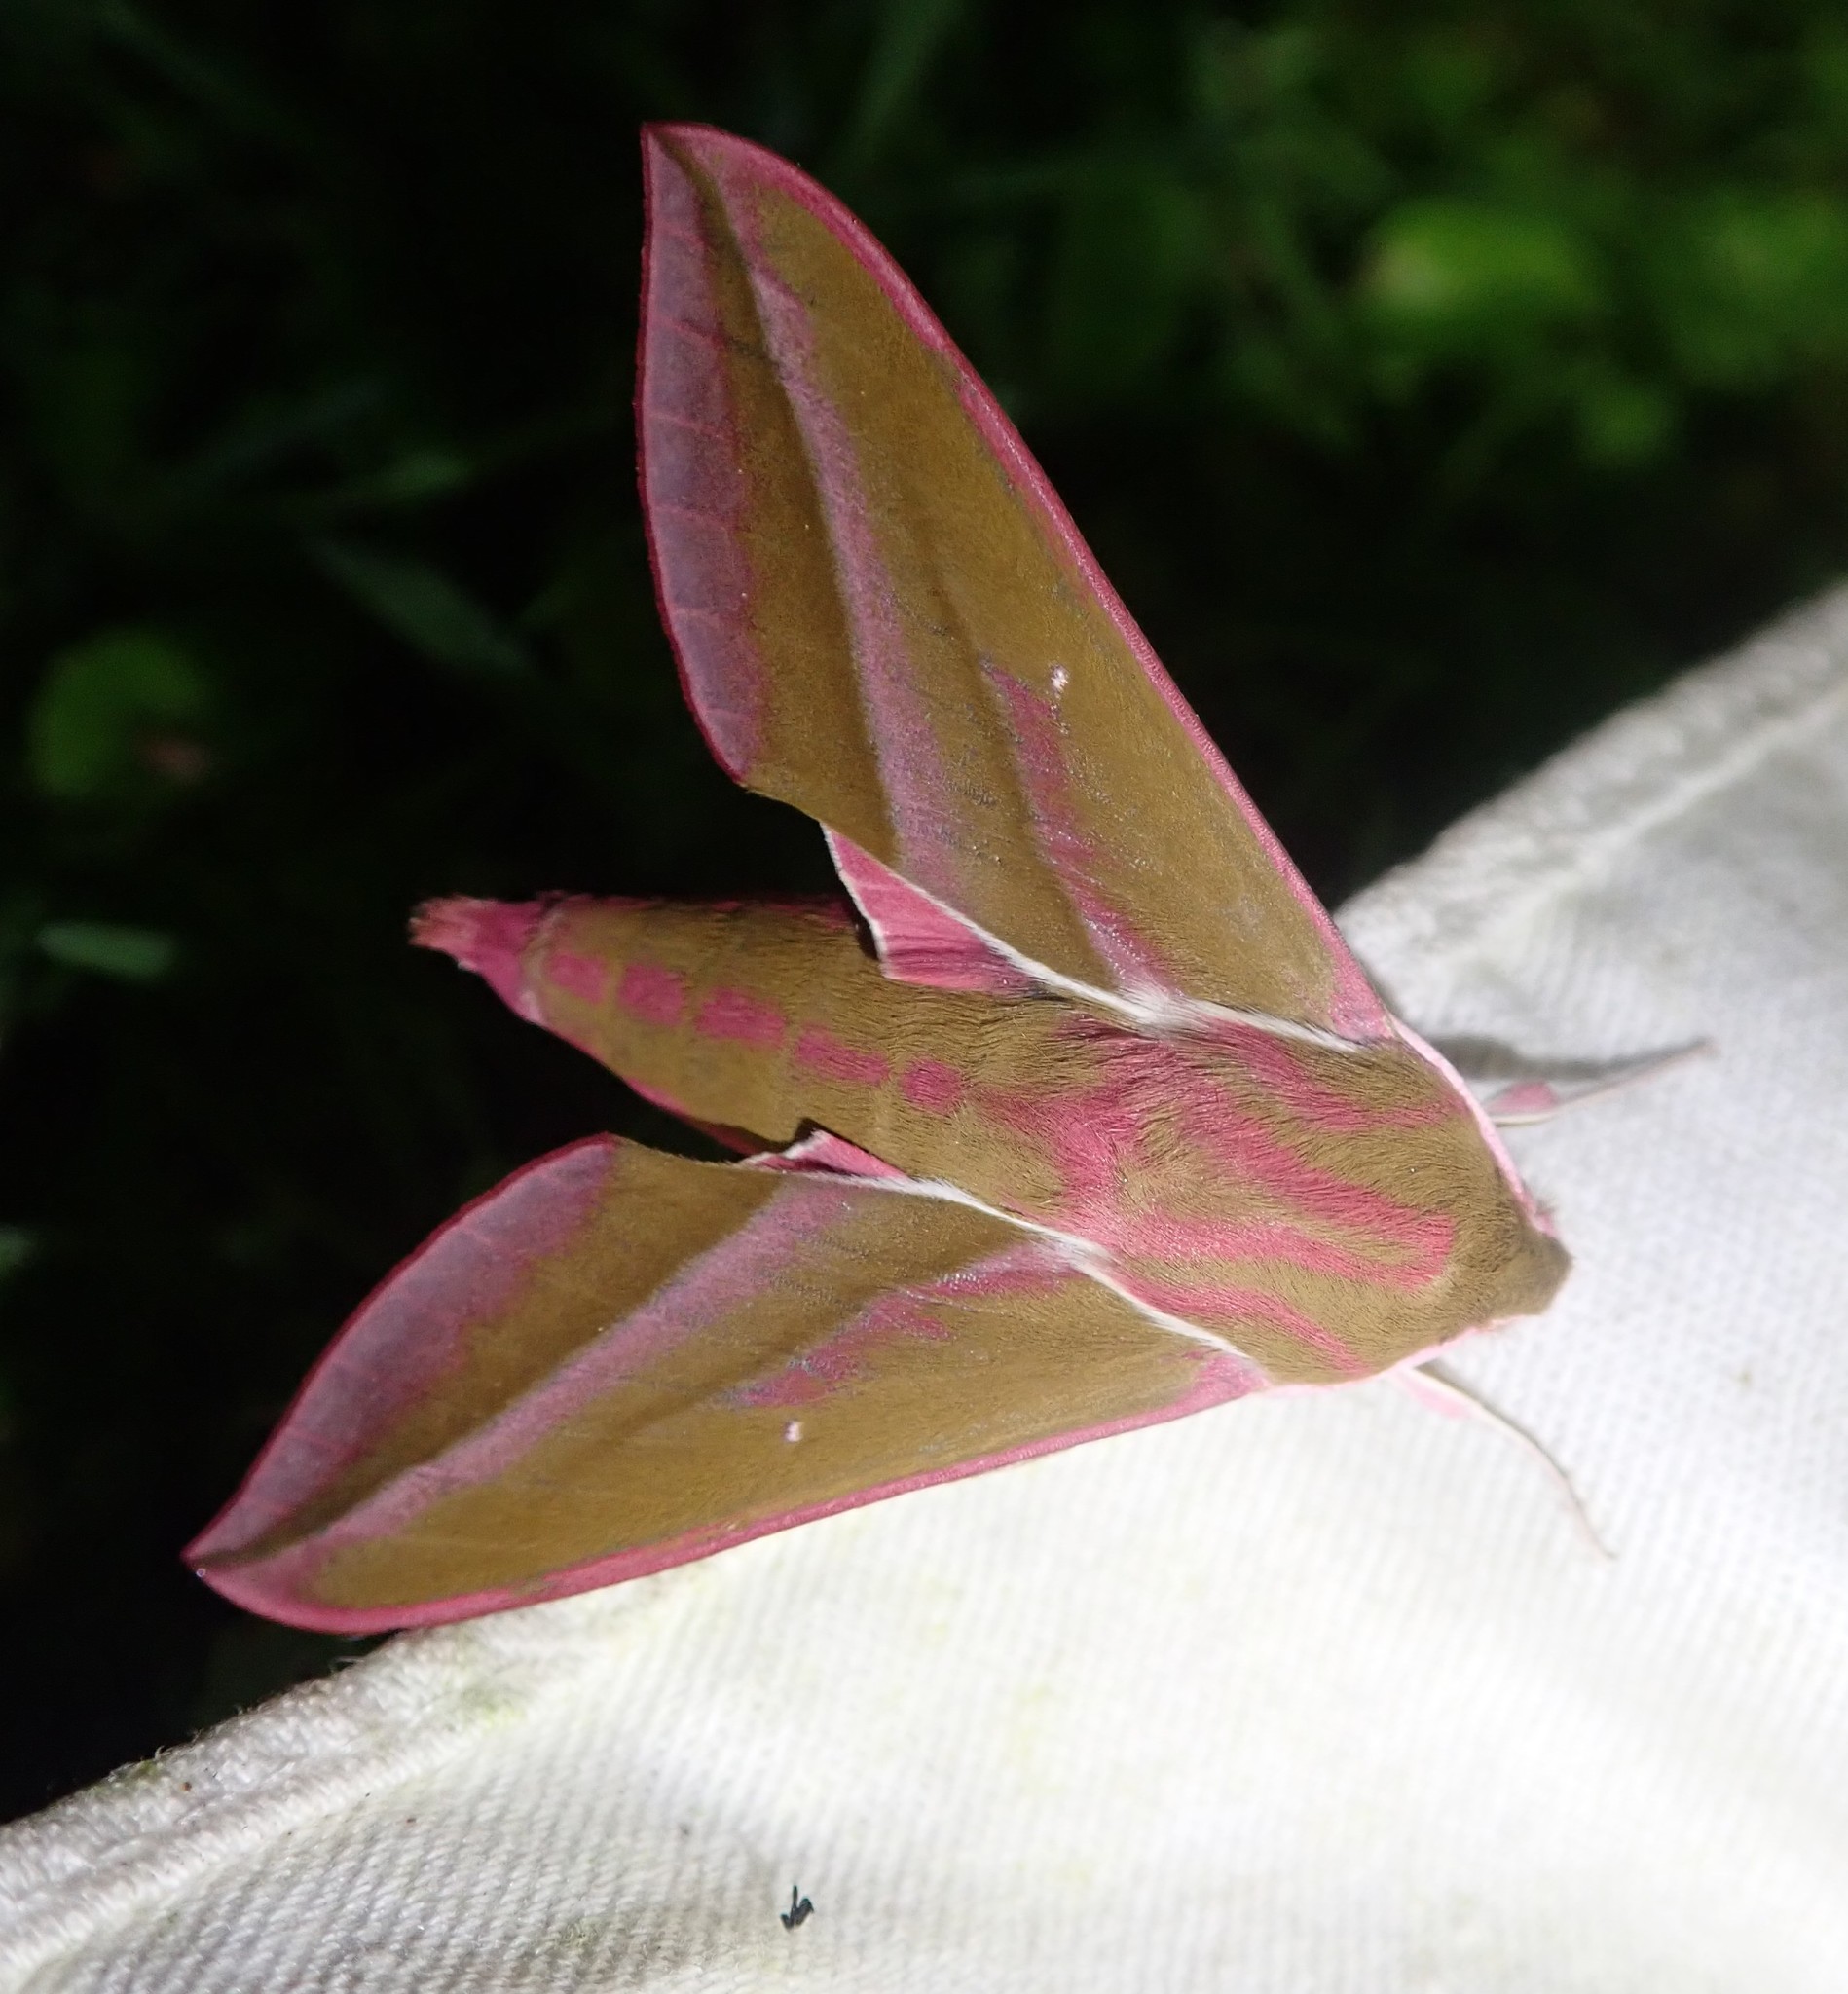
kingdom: Animalia
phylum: Arthropoda
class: Insecta
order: Lepidoptera
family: Sphingidae
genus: Deilephila
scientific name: Deilephila elpenor
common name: Elephant hawk-moth
